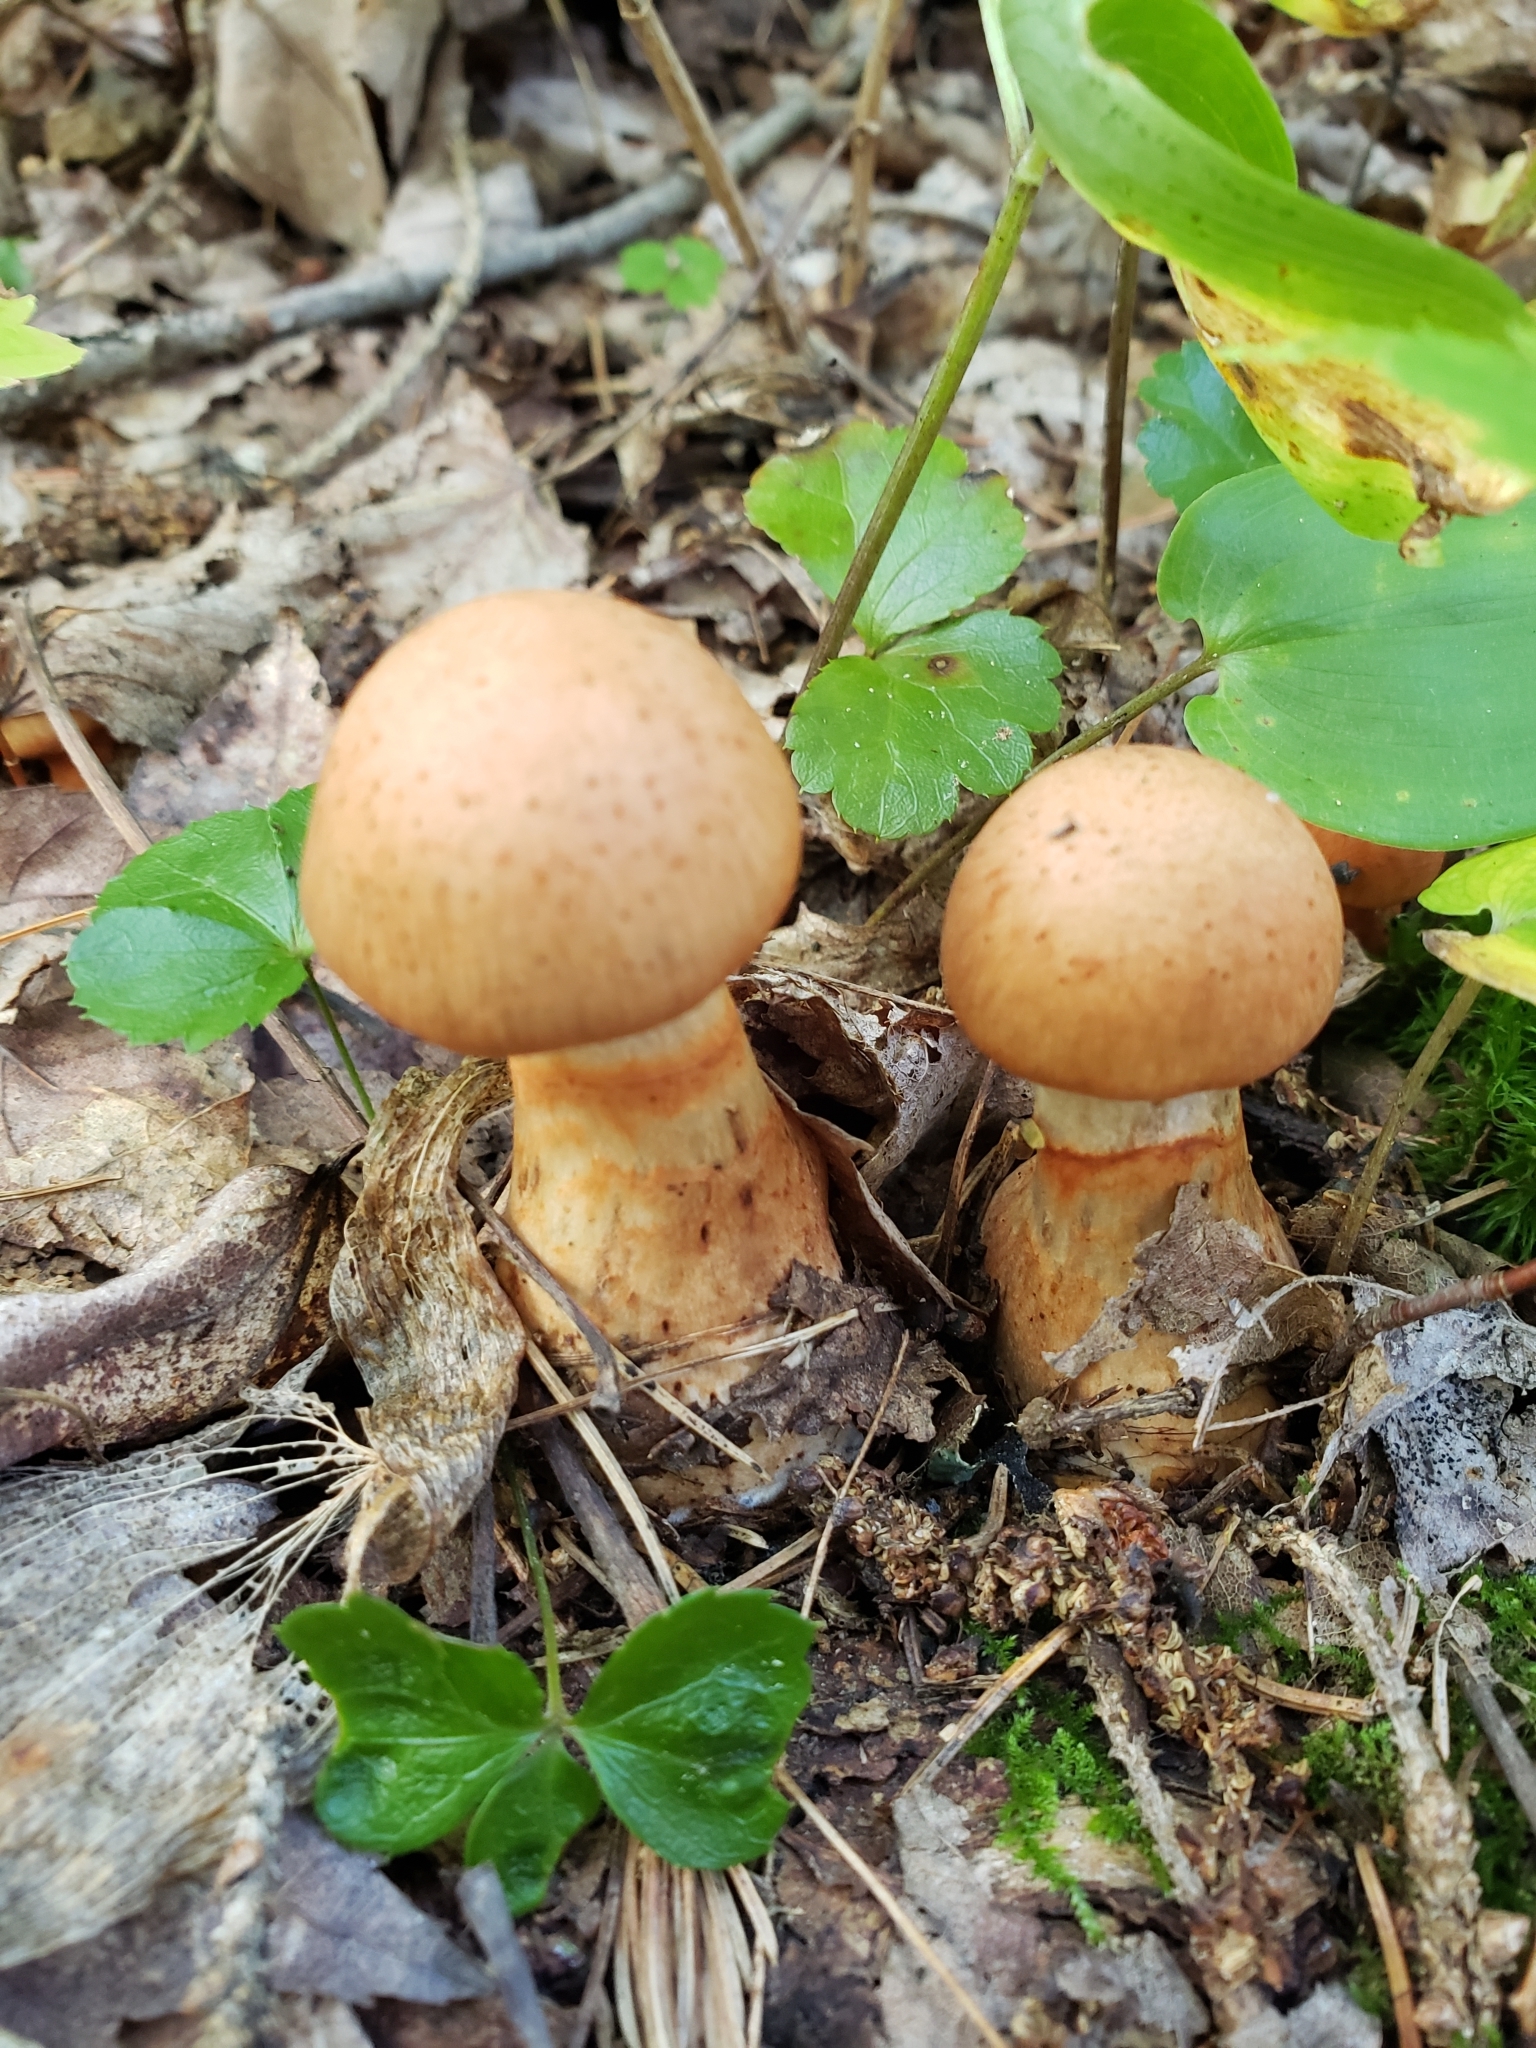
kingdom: Fungi
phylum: Basidiomycota
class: Agaricomycetes
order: Agaricales
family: Cortinariaceae
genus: Cortinarius
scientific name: Cortinarius armillatus
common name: Red banded webcap
